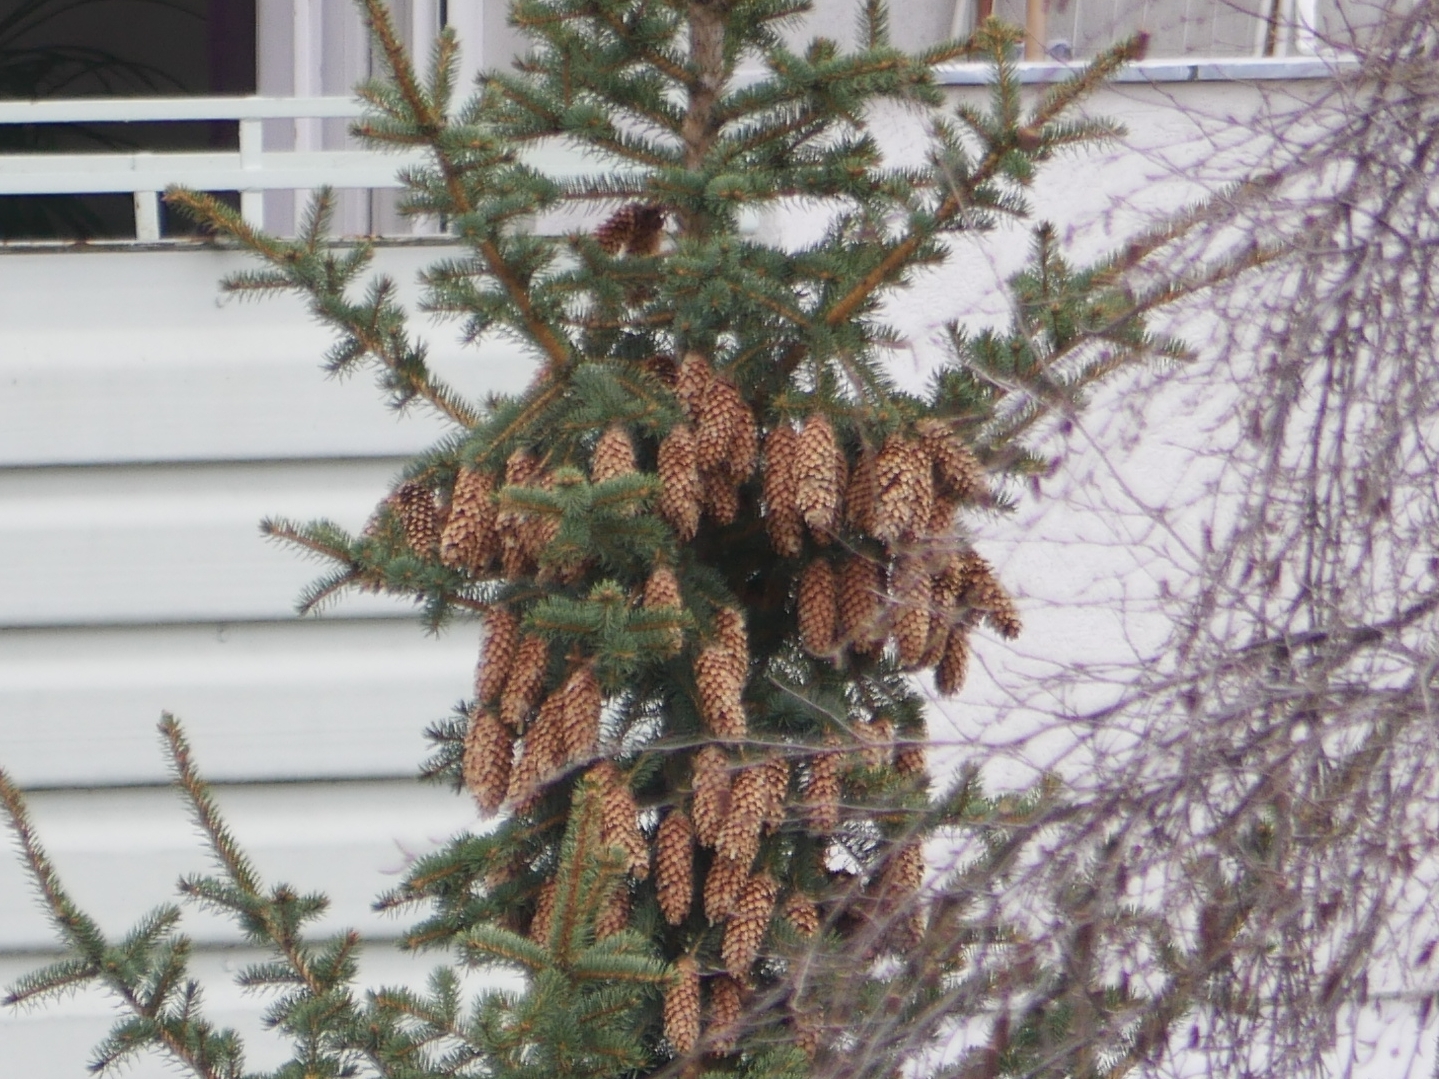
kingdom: Plantae
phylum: Tracheophyta
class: Pinopsida
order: Pinales
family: Pinaceae
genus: Picea
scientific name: Picea abies
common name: Norway spruce
